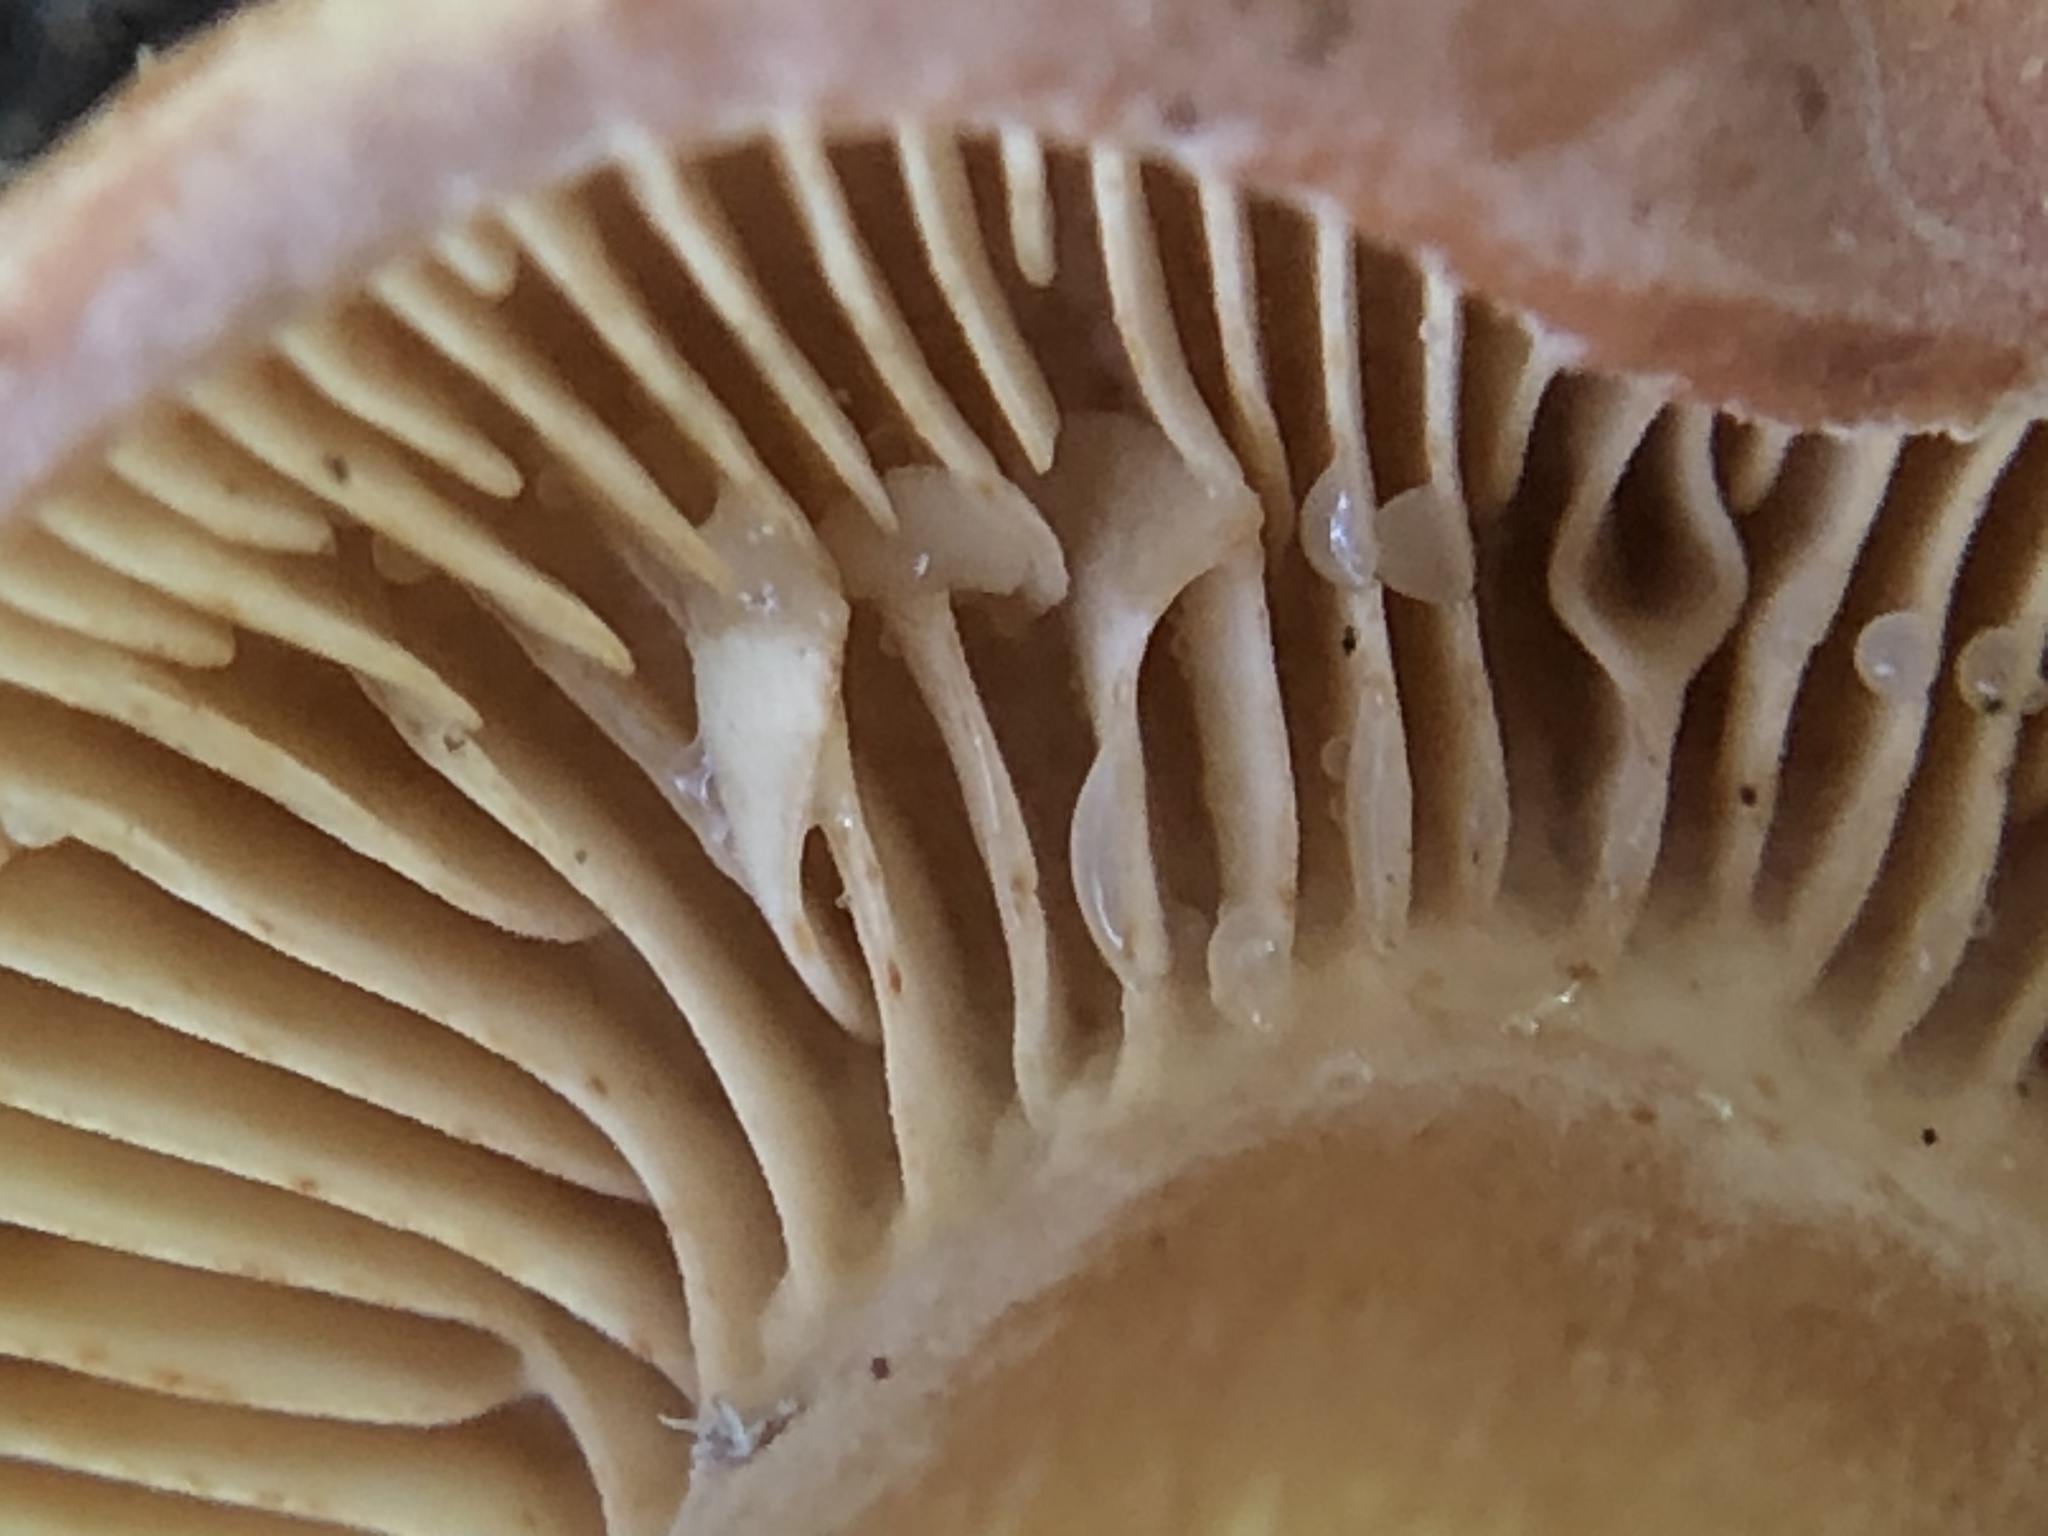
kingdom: Fungi
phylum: Basidiomycota
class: Agaricomycetes
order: Russulales
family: Russulaceae
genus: Lactarius
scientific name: Lactarius rufulus
